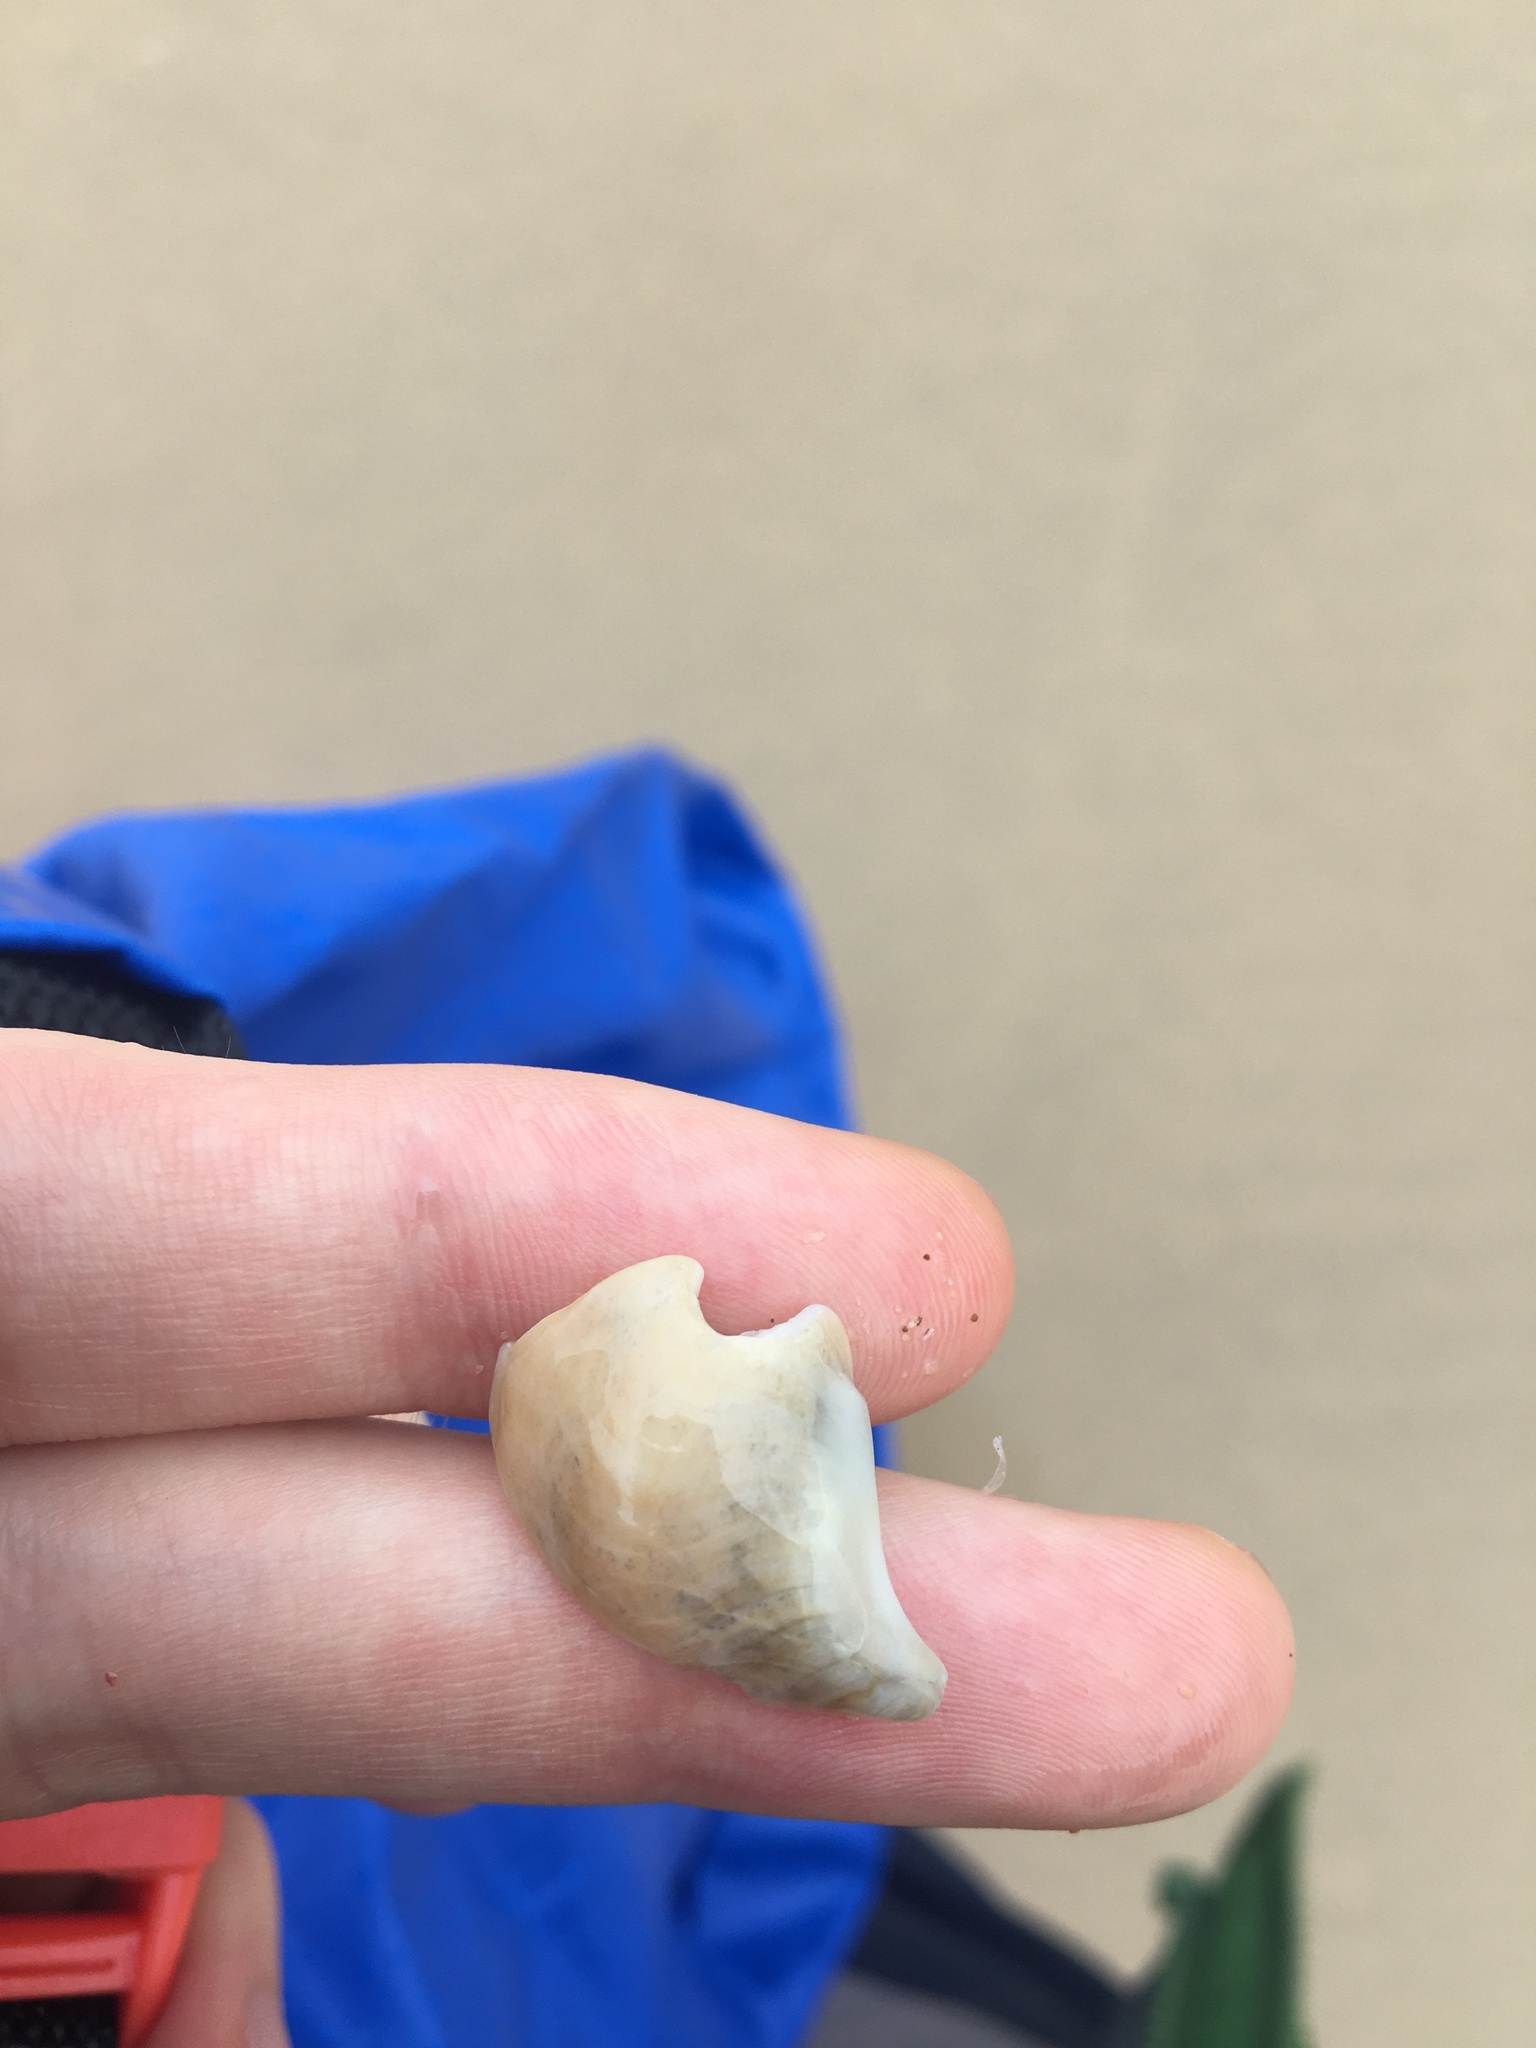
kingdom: Animalia
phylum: Mollusca
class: Gastropoda
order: Littorinimorpha
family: Struthiolariidae
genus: Tylospira
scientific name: Tylospira scutulata
